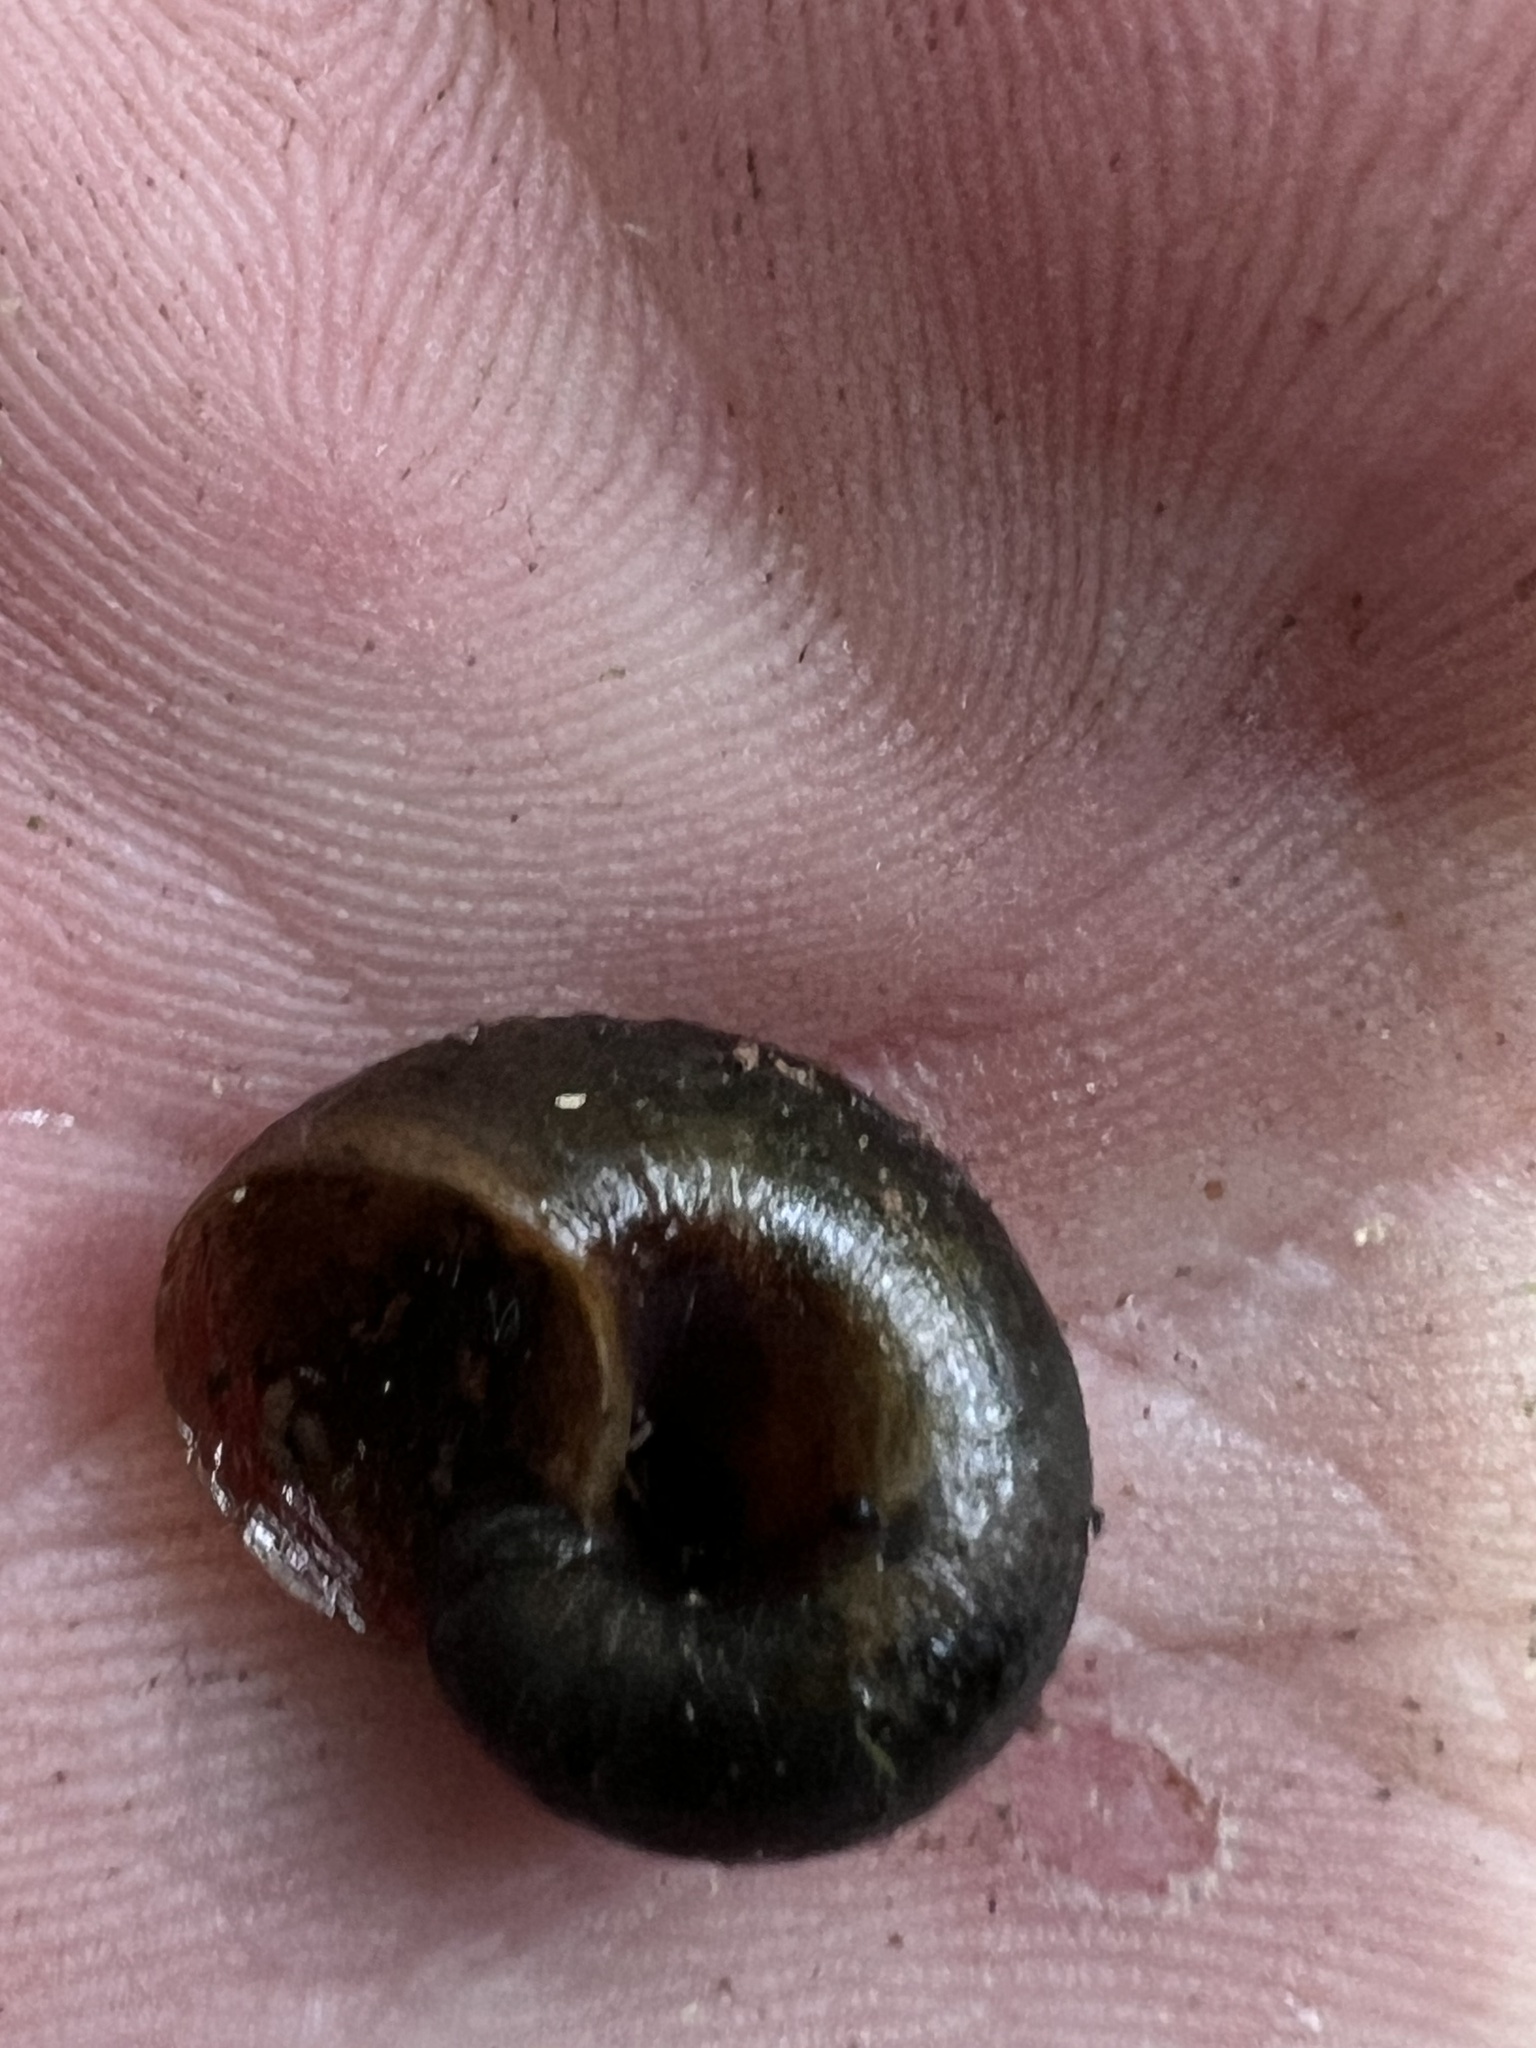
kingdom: Animalia
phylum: Mollusca
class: Gastropoda
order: Stylommatophora
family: Rhytididae
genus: Rhytida
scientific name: Rhytida greenwoodi
